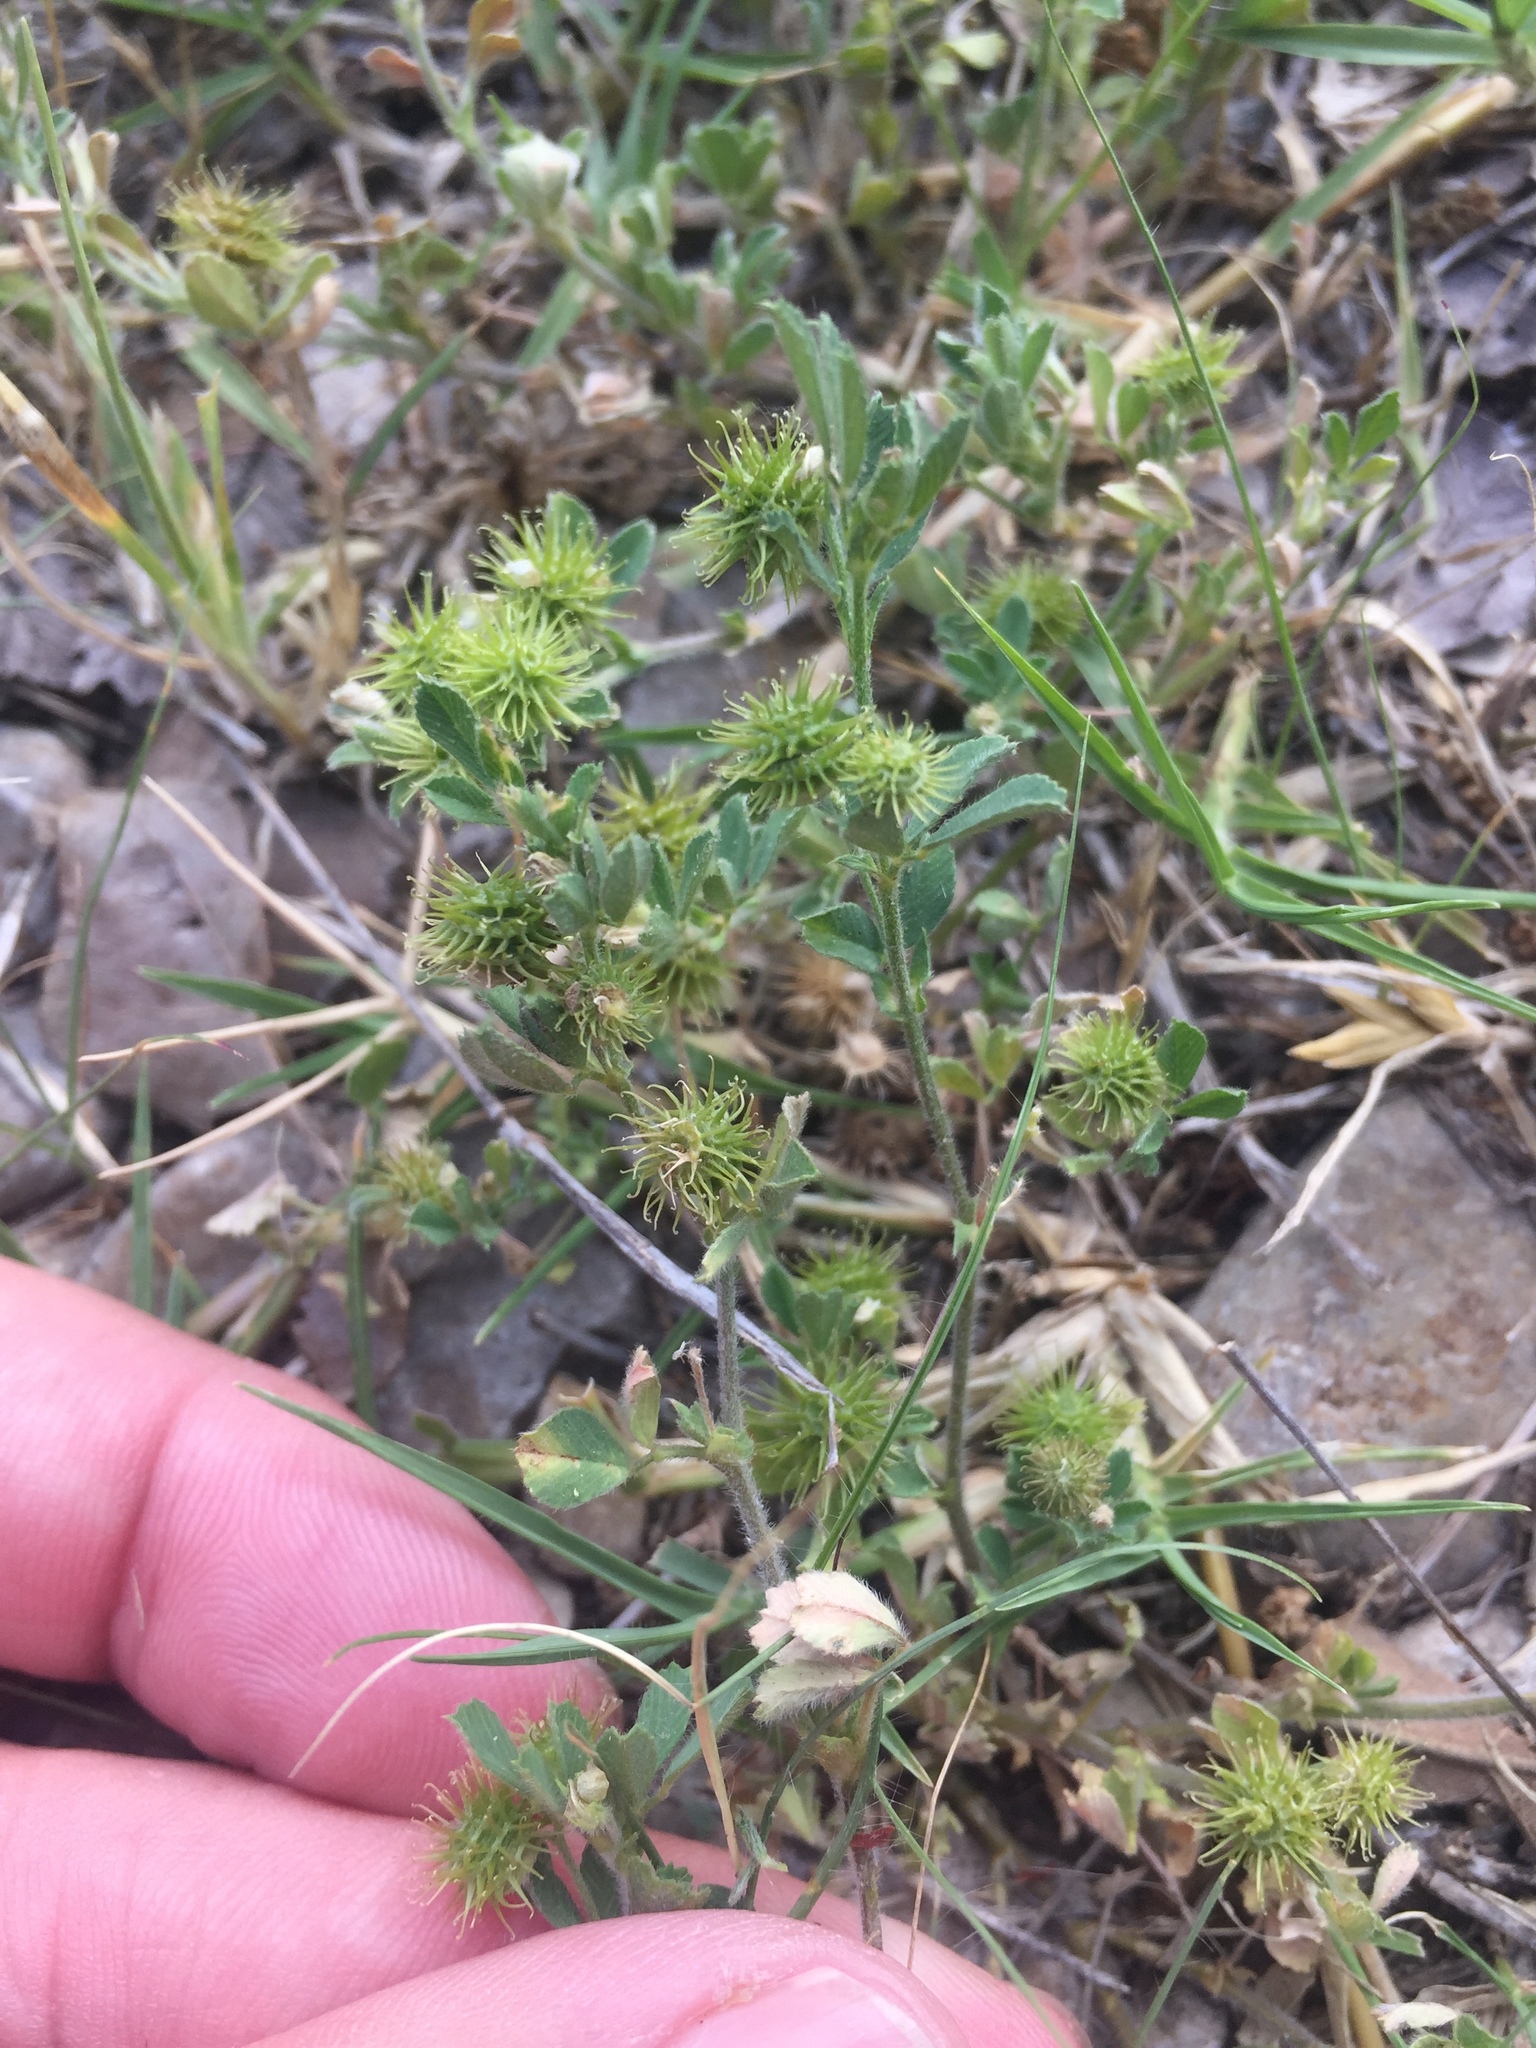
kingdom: Plantae
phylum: Tracheophyta
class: Magnoliopsida
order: Fabales
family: Fabaceae
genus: Medicago
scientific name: Medicago minima
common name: Little bur-clover
